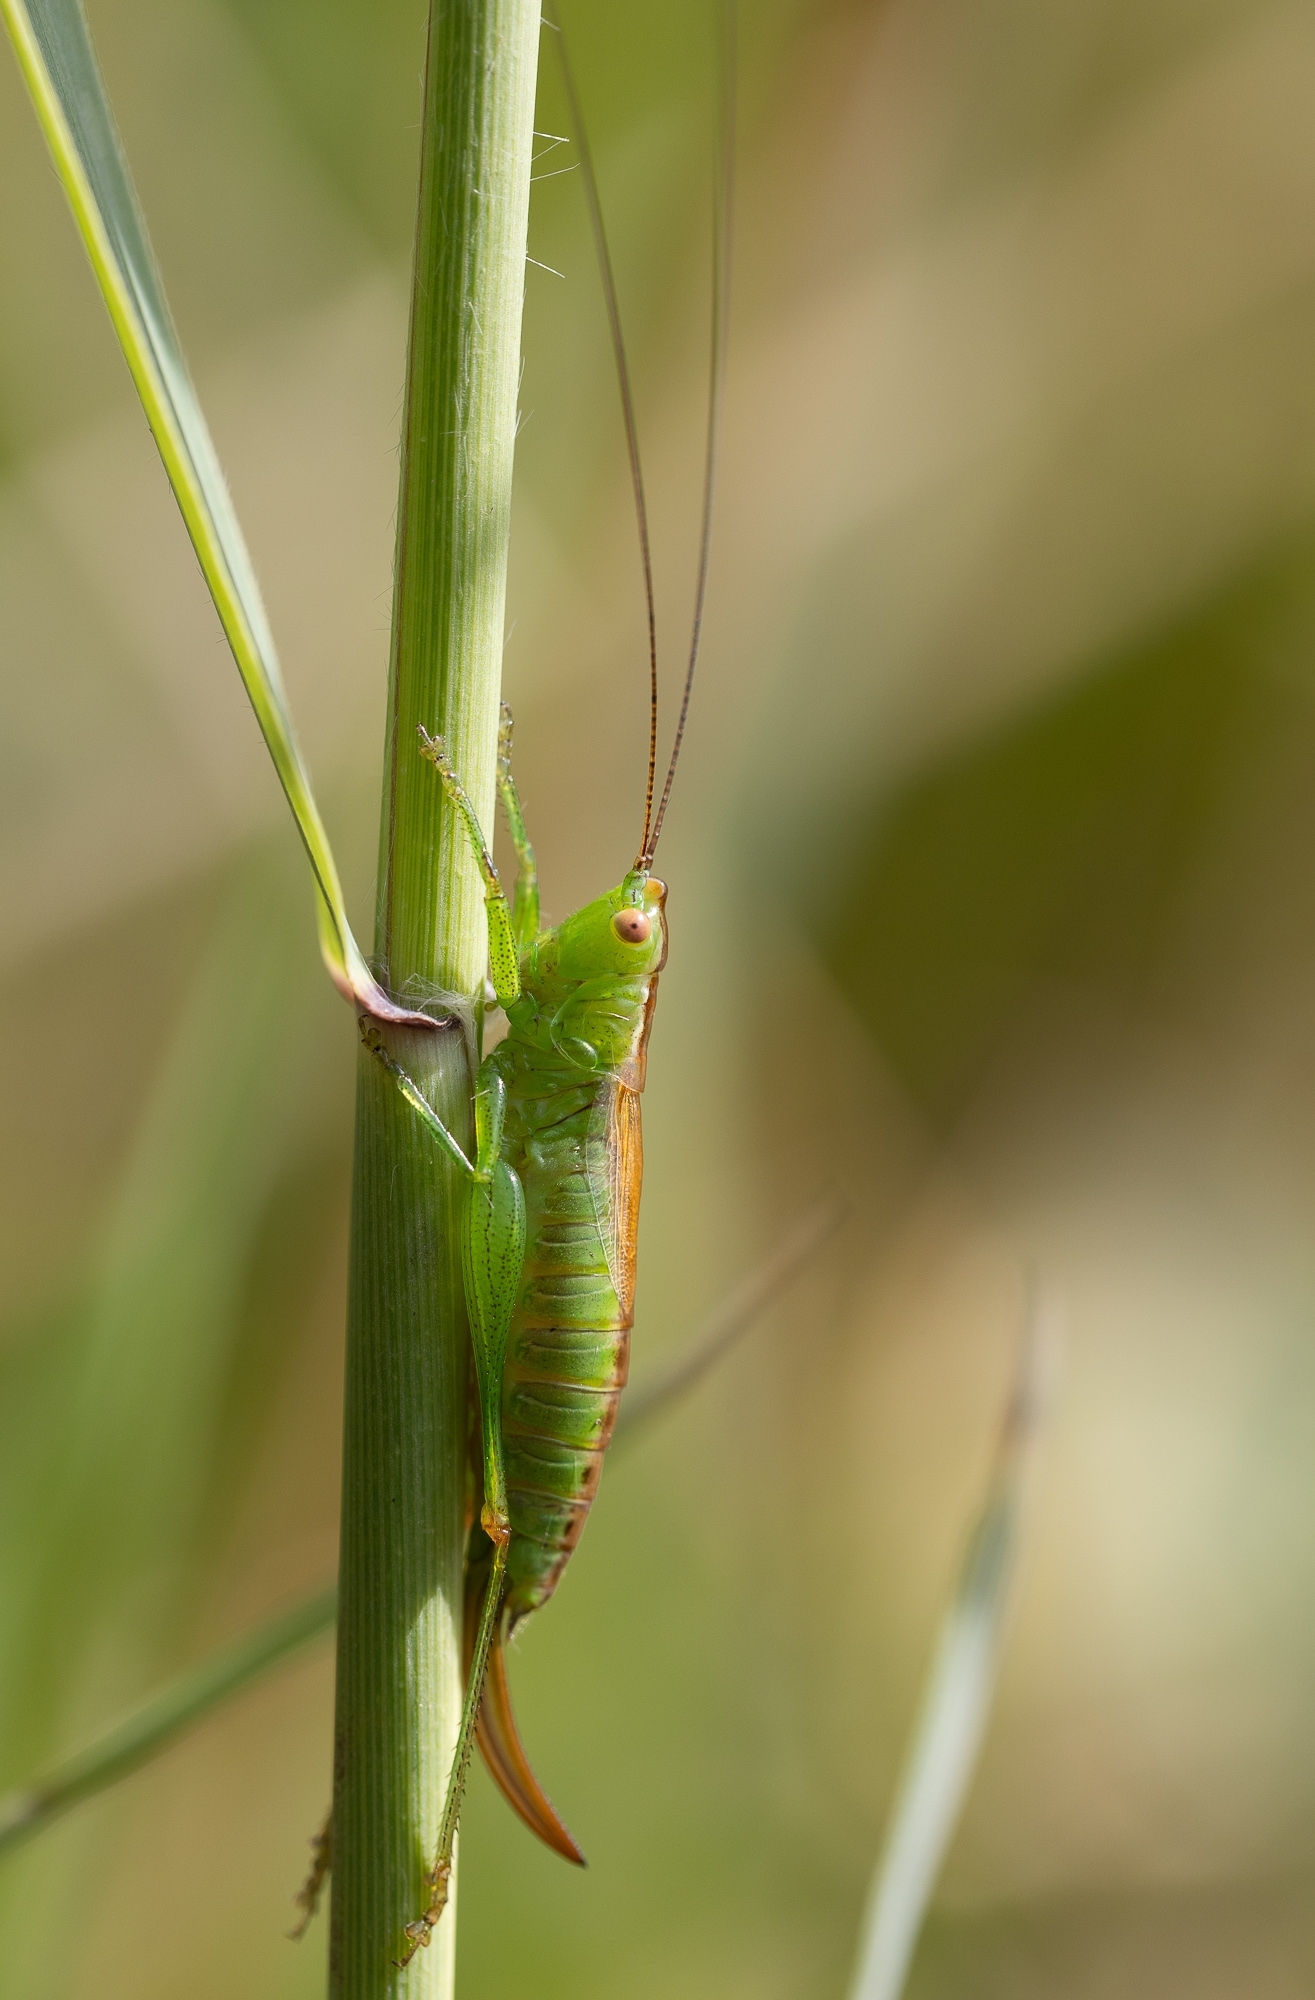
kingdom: Animalia
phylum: Arthropoda
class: Insecta
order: Orthoptera
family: Tettigoniidae
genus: Conocephalus
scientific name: Conocephalus dorsalis
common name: Short-winged conehead
